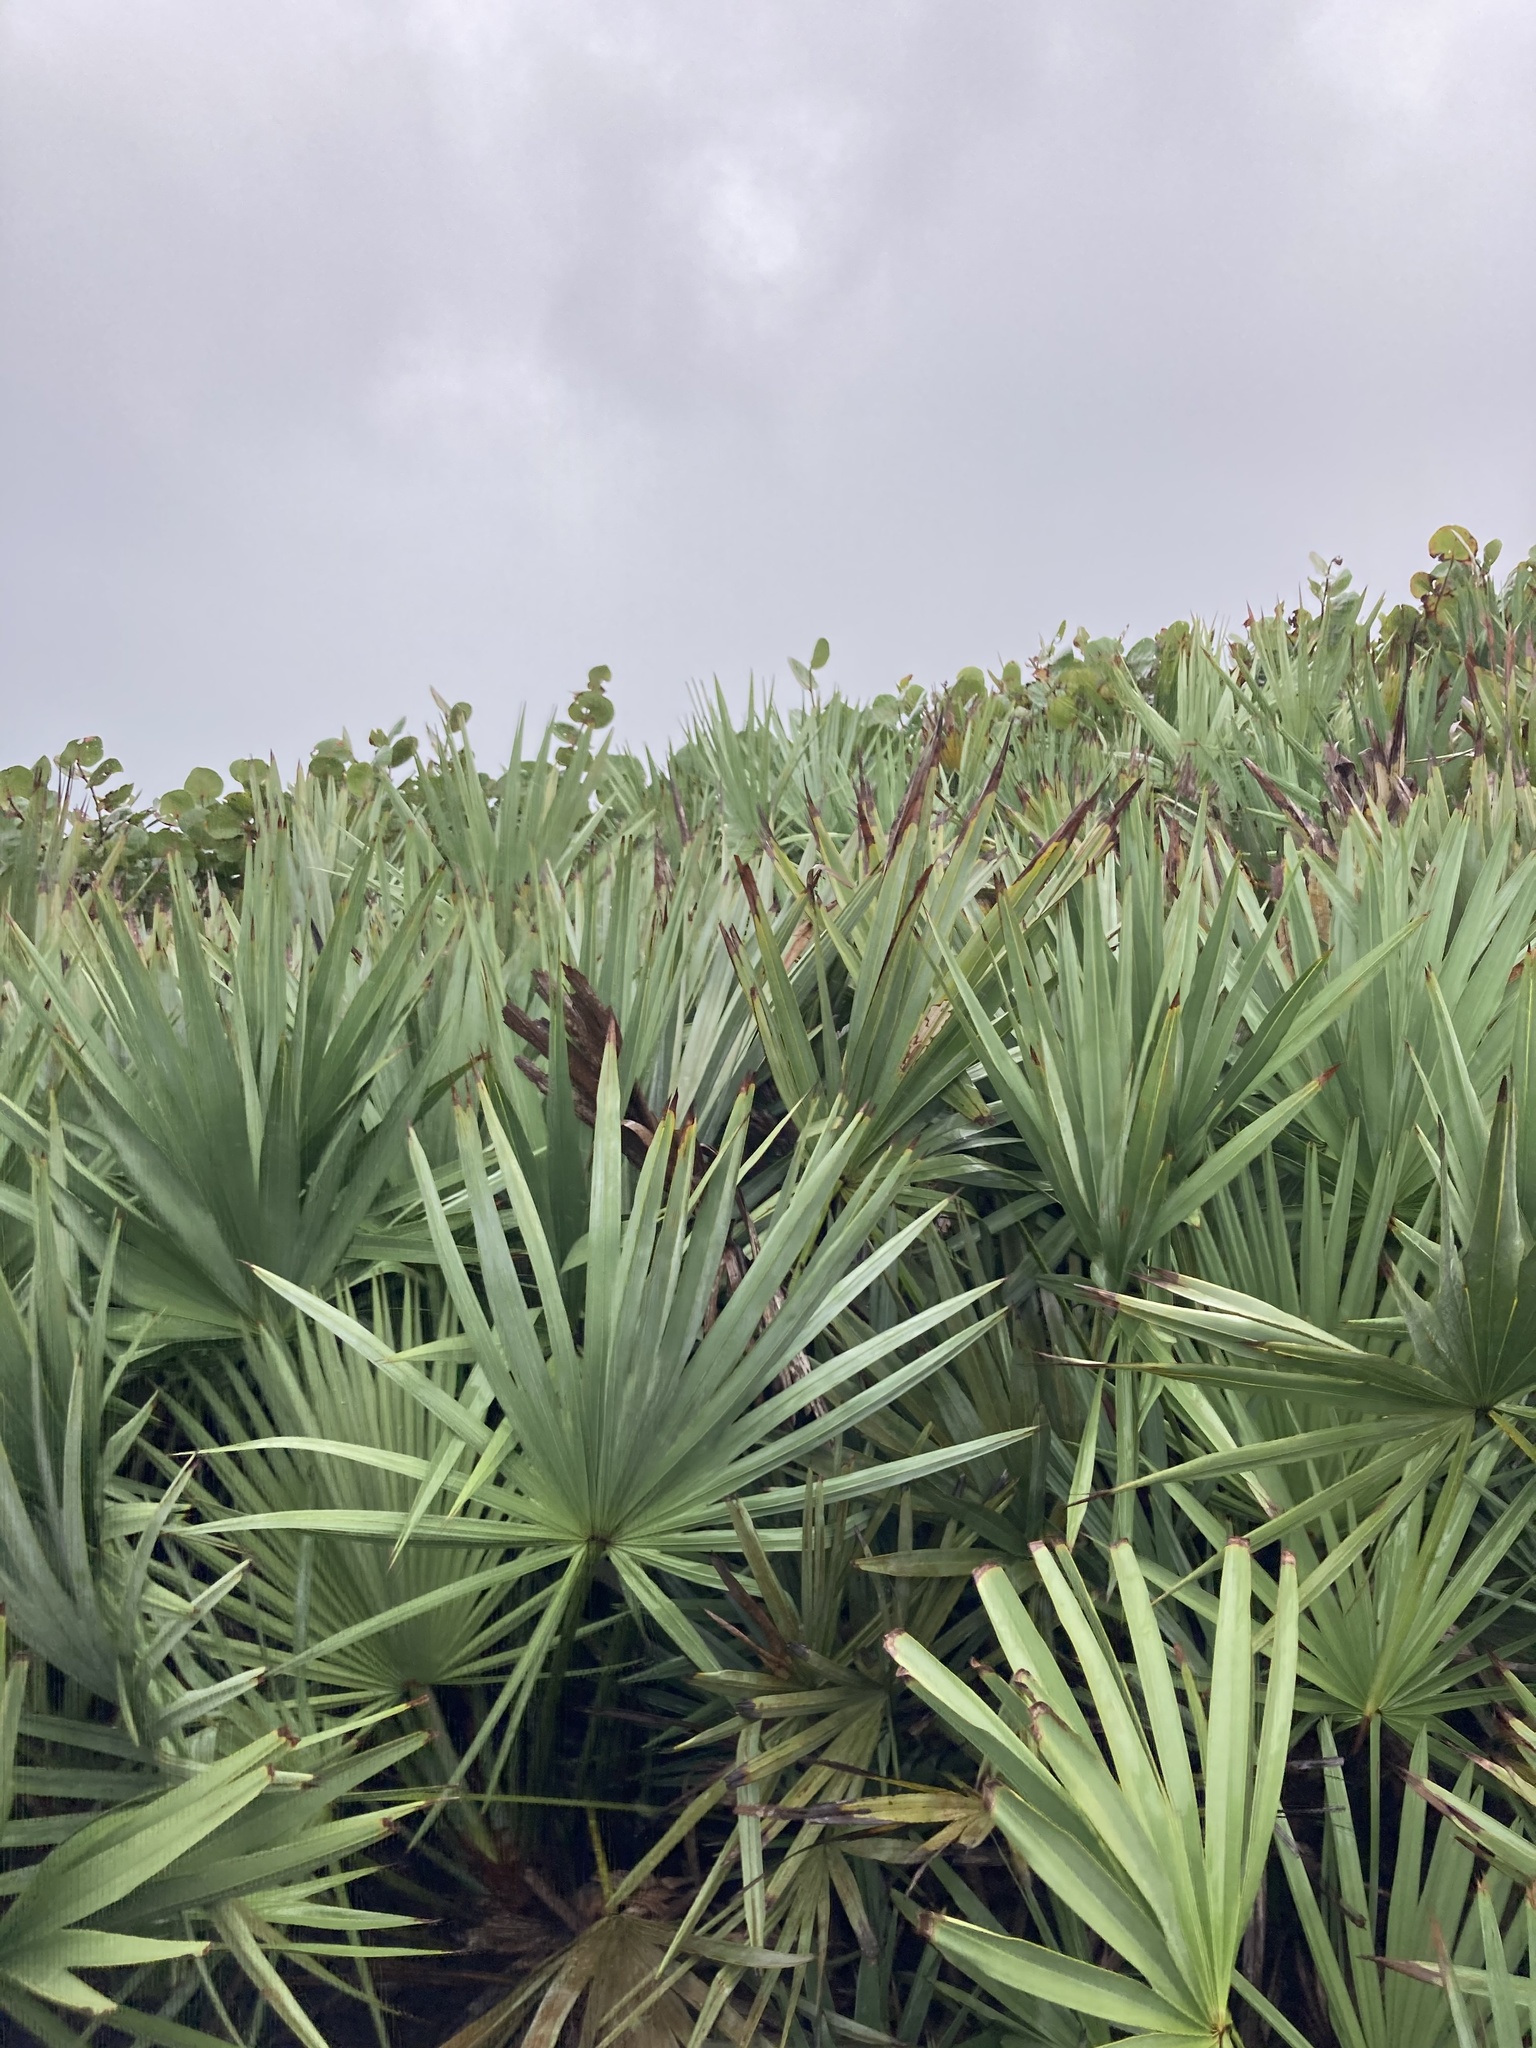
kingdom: Plantae
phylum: Tracheophyta
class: Liliopsida
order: Arecales
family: Arecaceae
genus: Serenoa
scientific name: Serenoa repens
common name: Saw-palmetto
